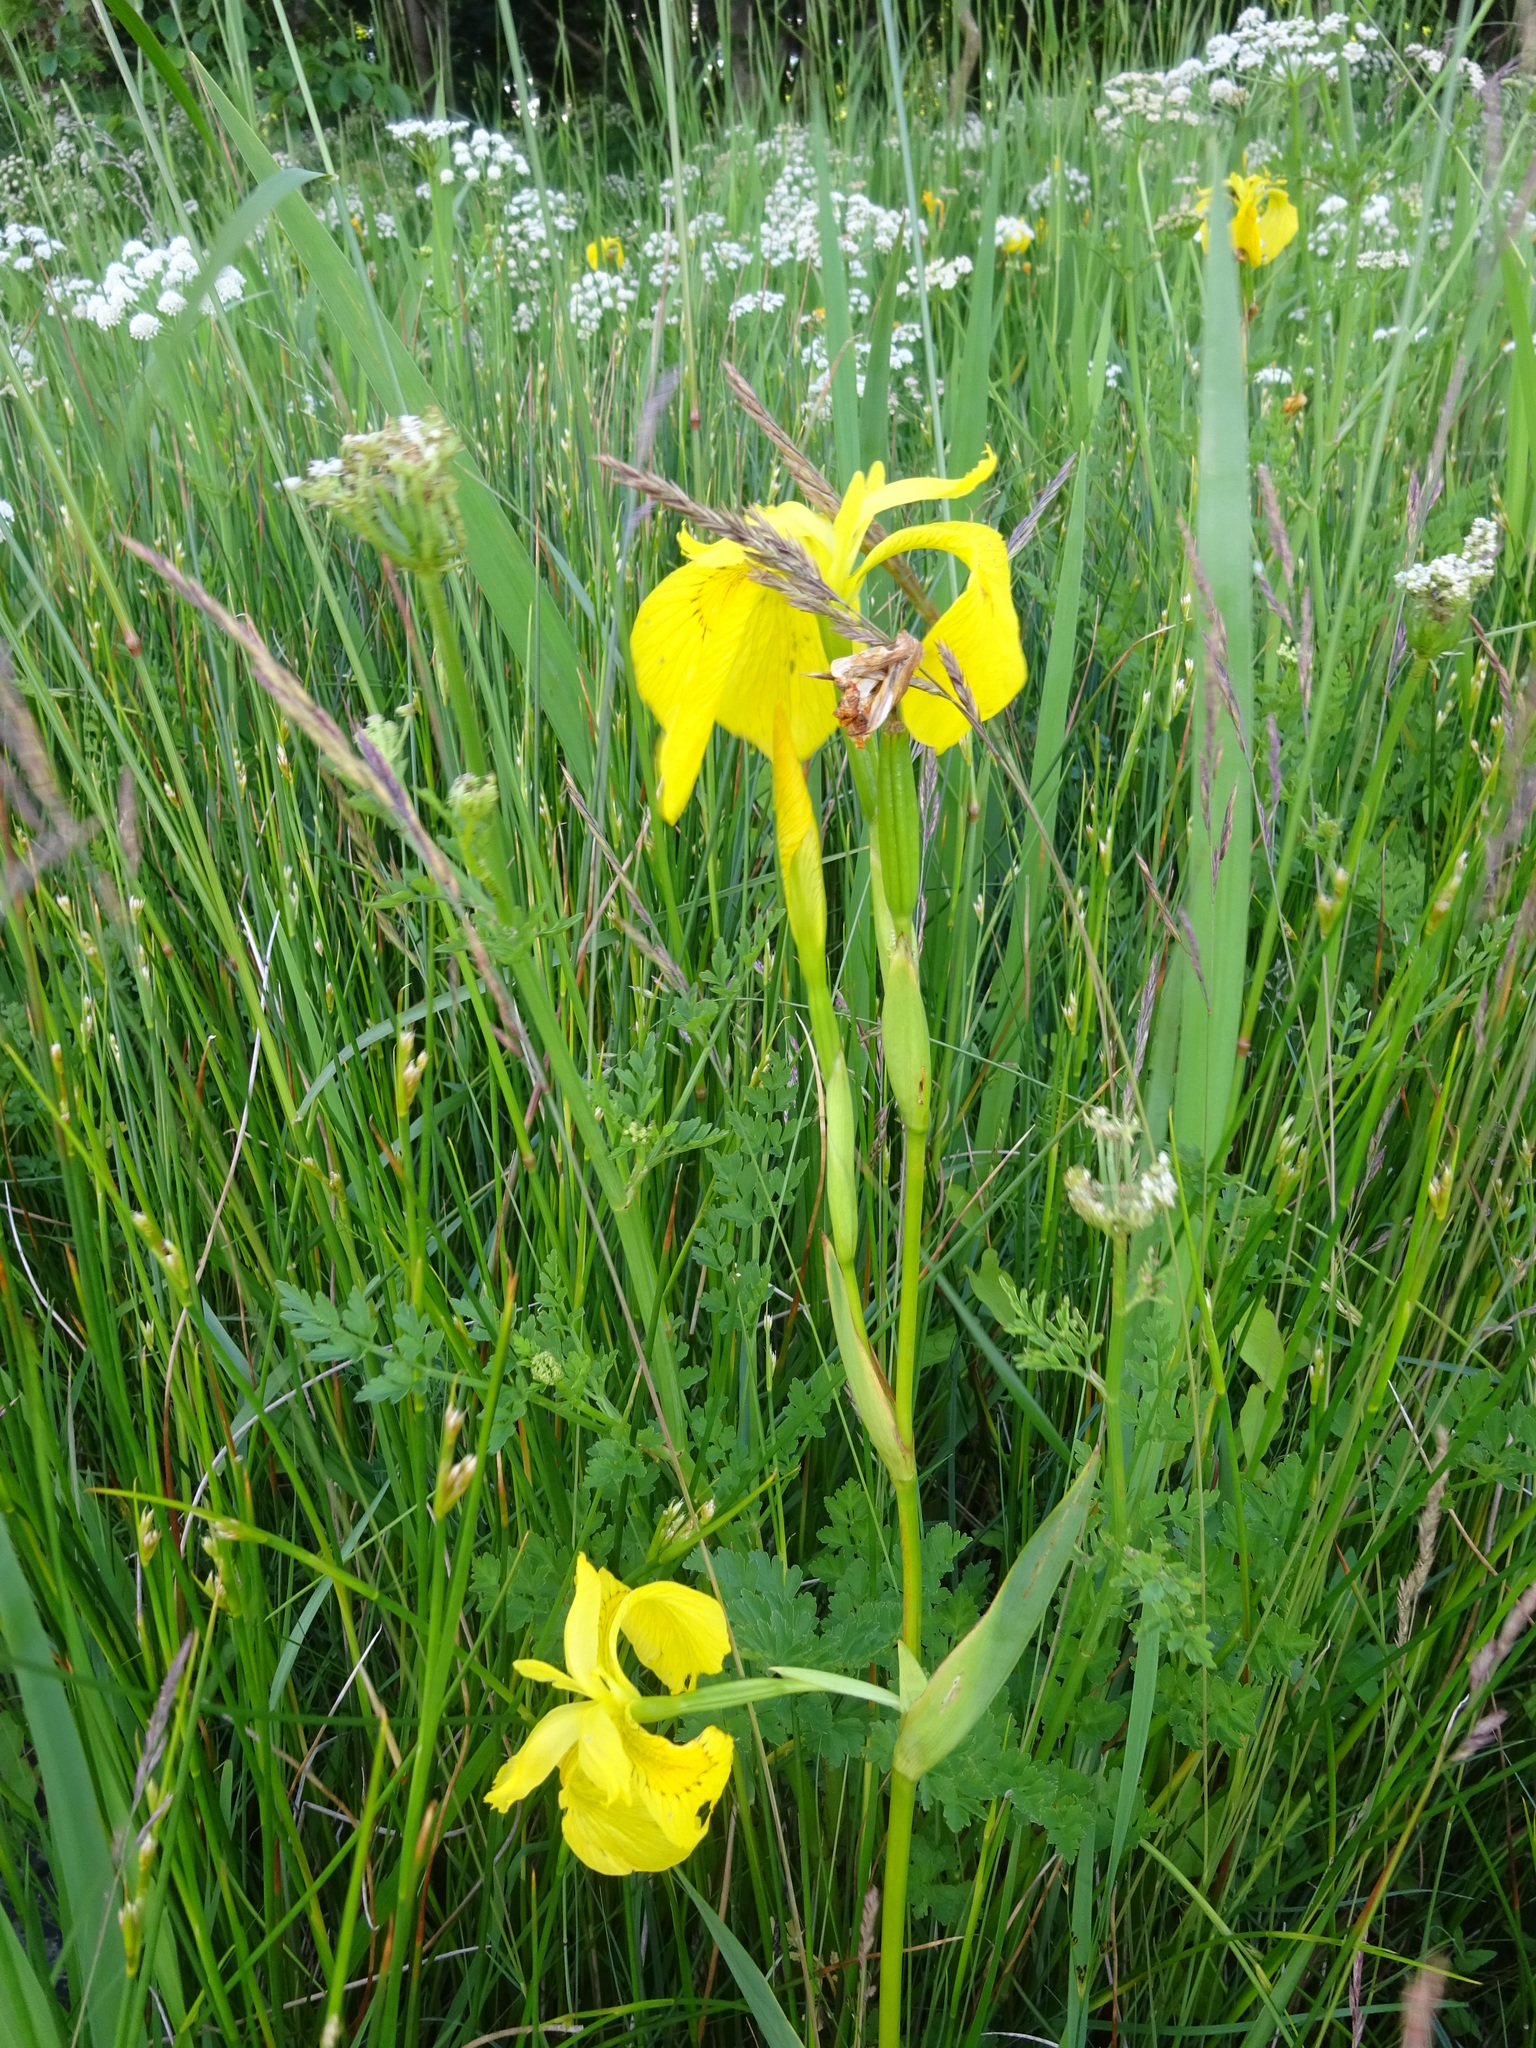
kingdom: Plantae
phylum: Tracheophyta
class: Liliopsida
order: Asparagales
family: Iridaceae
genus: Iris
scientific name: Iris pseudacorus
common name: Yellow flag
